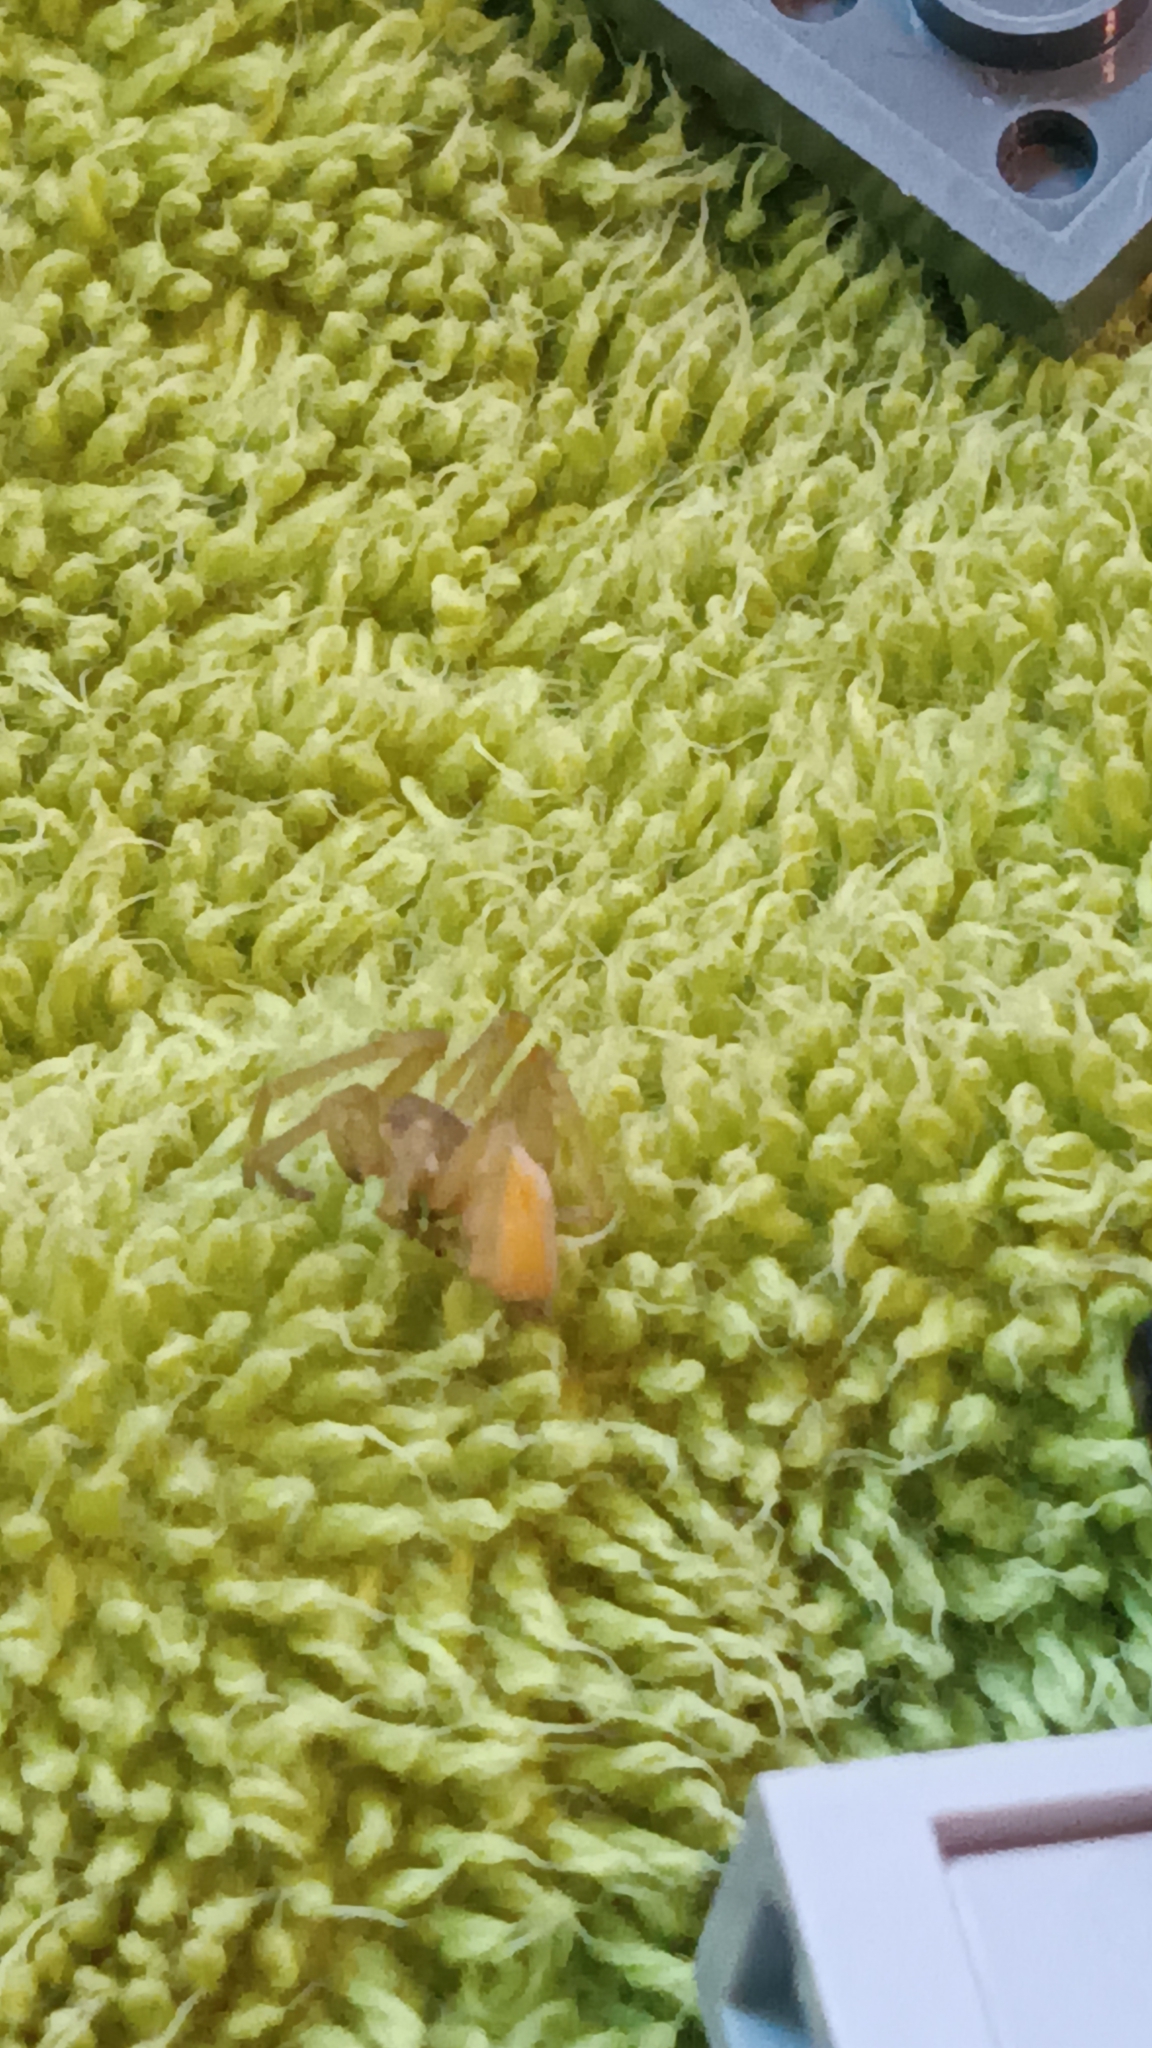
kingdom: Animalia
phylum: Arthropoda
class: Arachnida
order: Araneae
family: Cheiracanthiidae
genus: Cheiracanthium
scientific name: Cheiracanthium mildei
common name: Northern yellow sac spider
